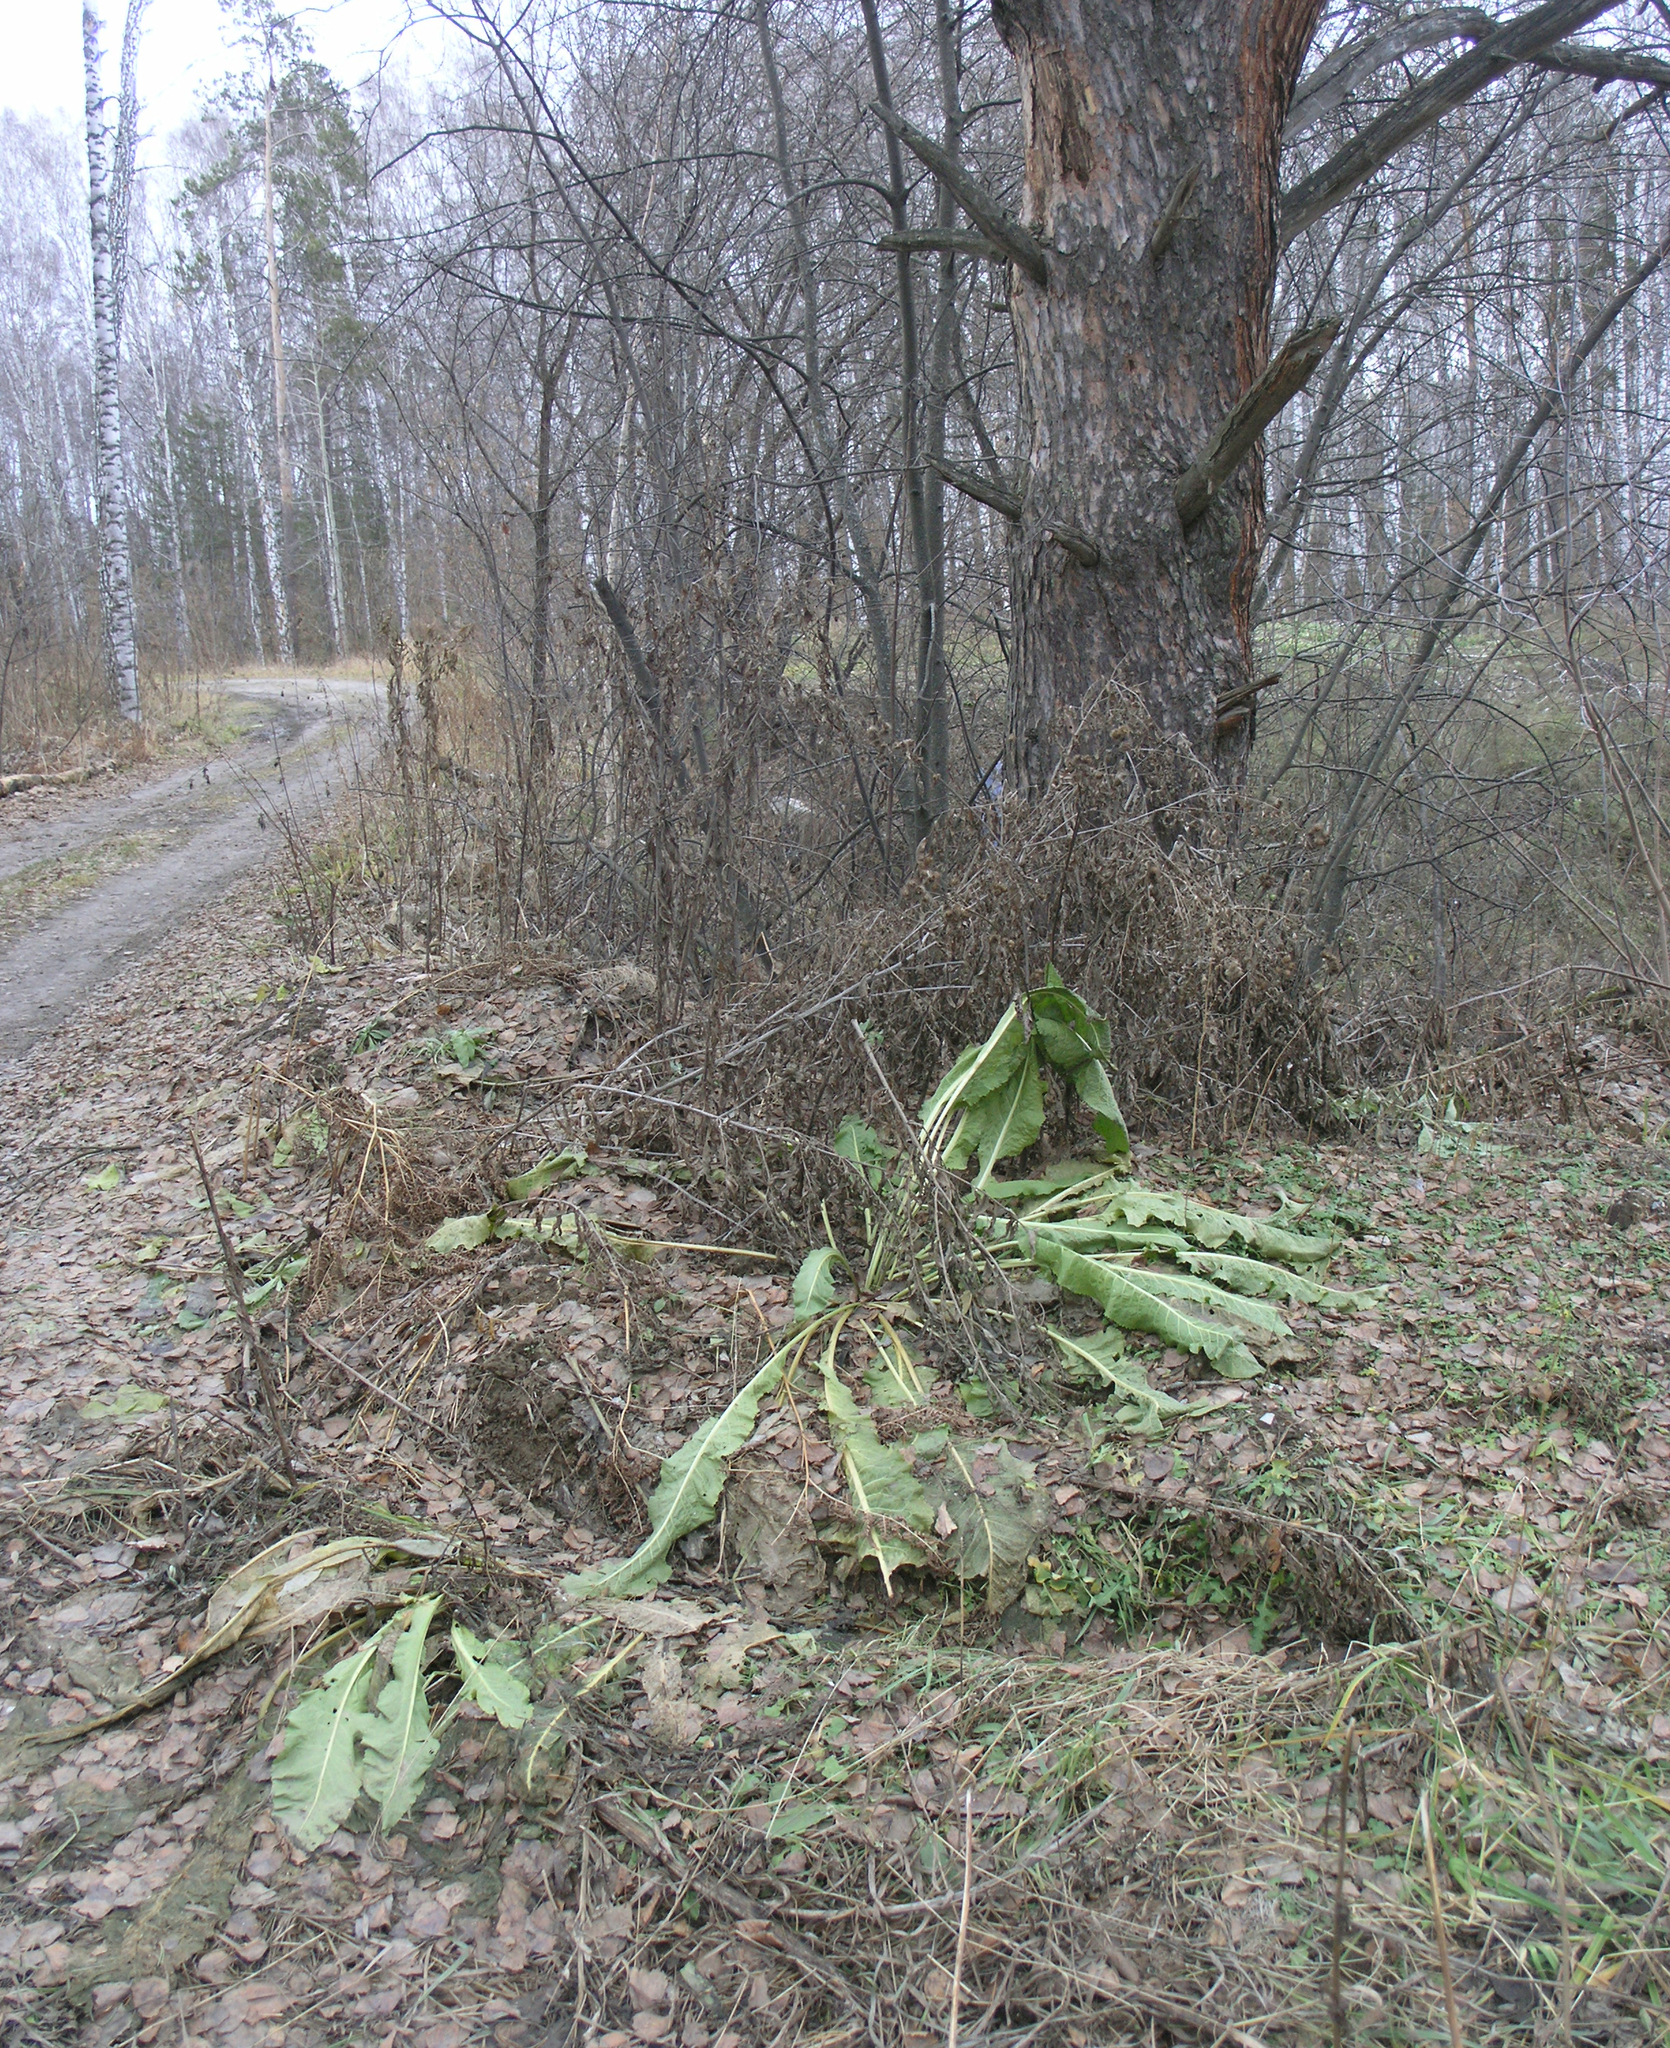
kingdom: Plantae
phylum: Tracheophyta
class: Magnoliopsida
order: Brassicales
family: Brassicaceae
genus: Armoracia
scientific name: Armoracia rusticana
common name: Horseradish
